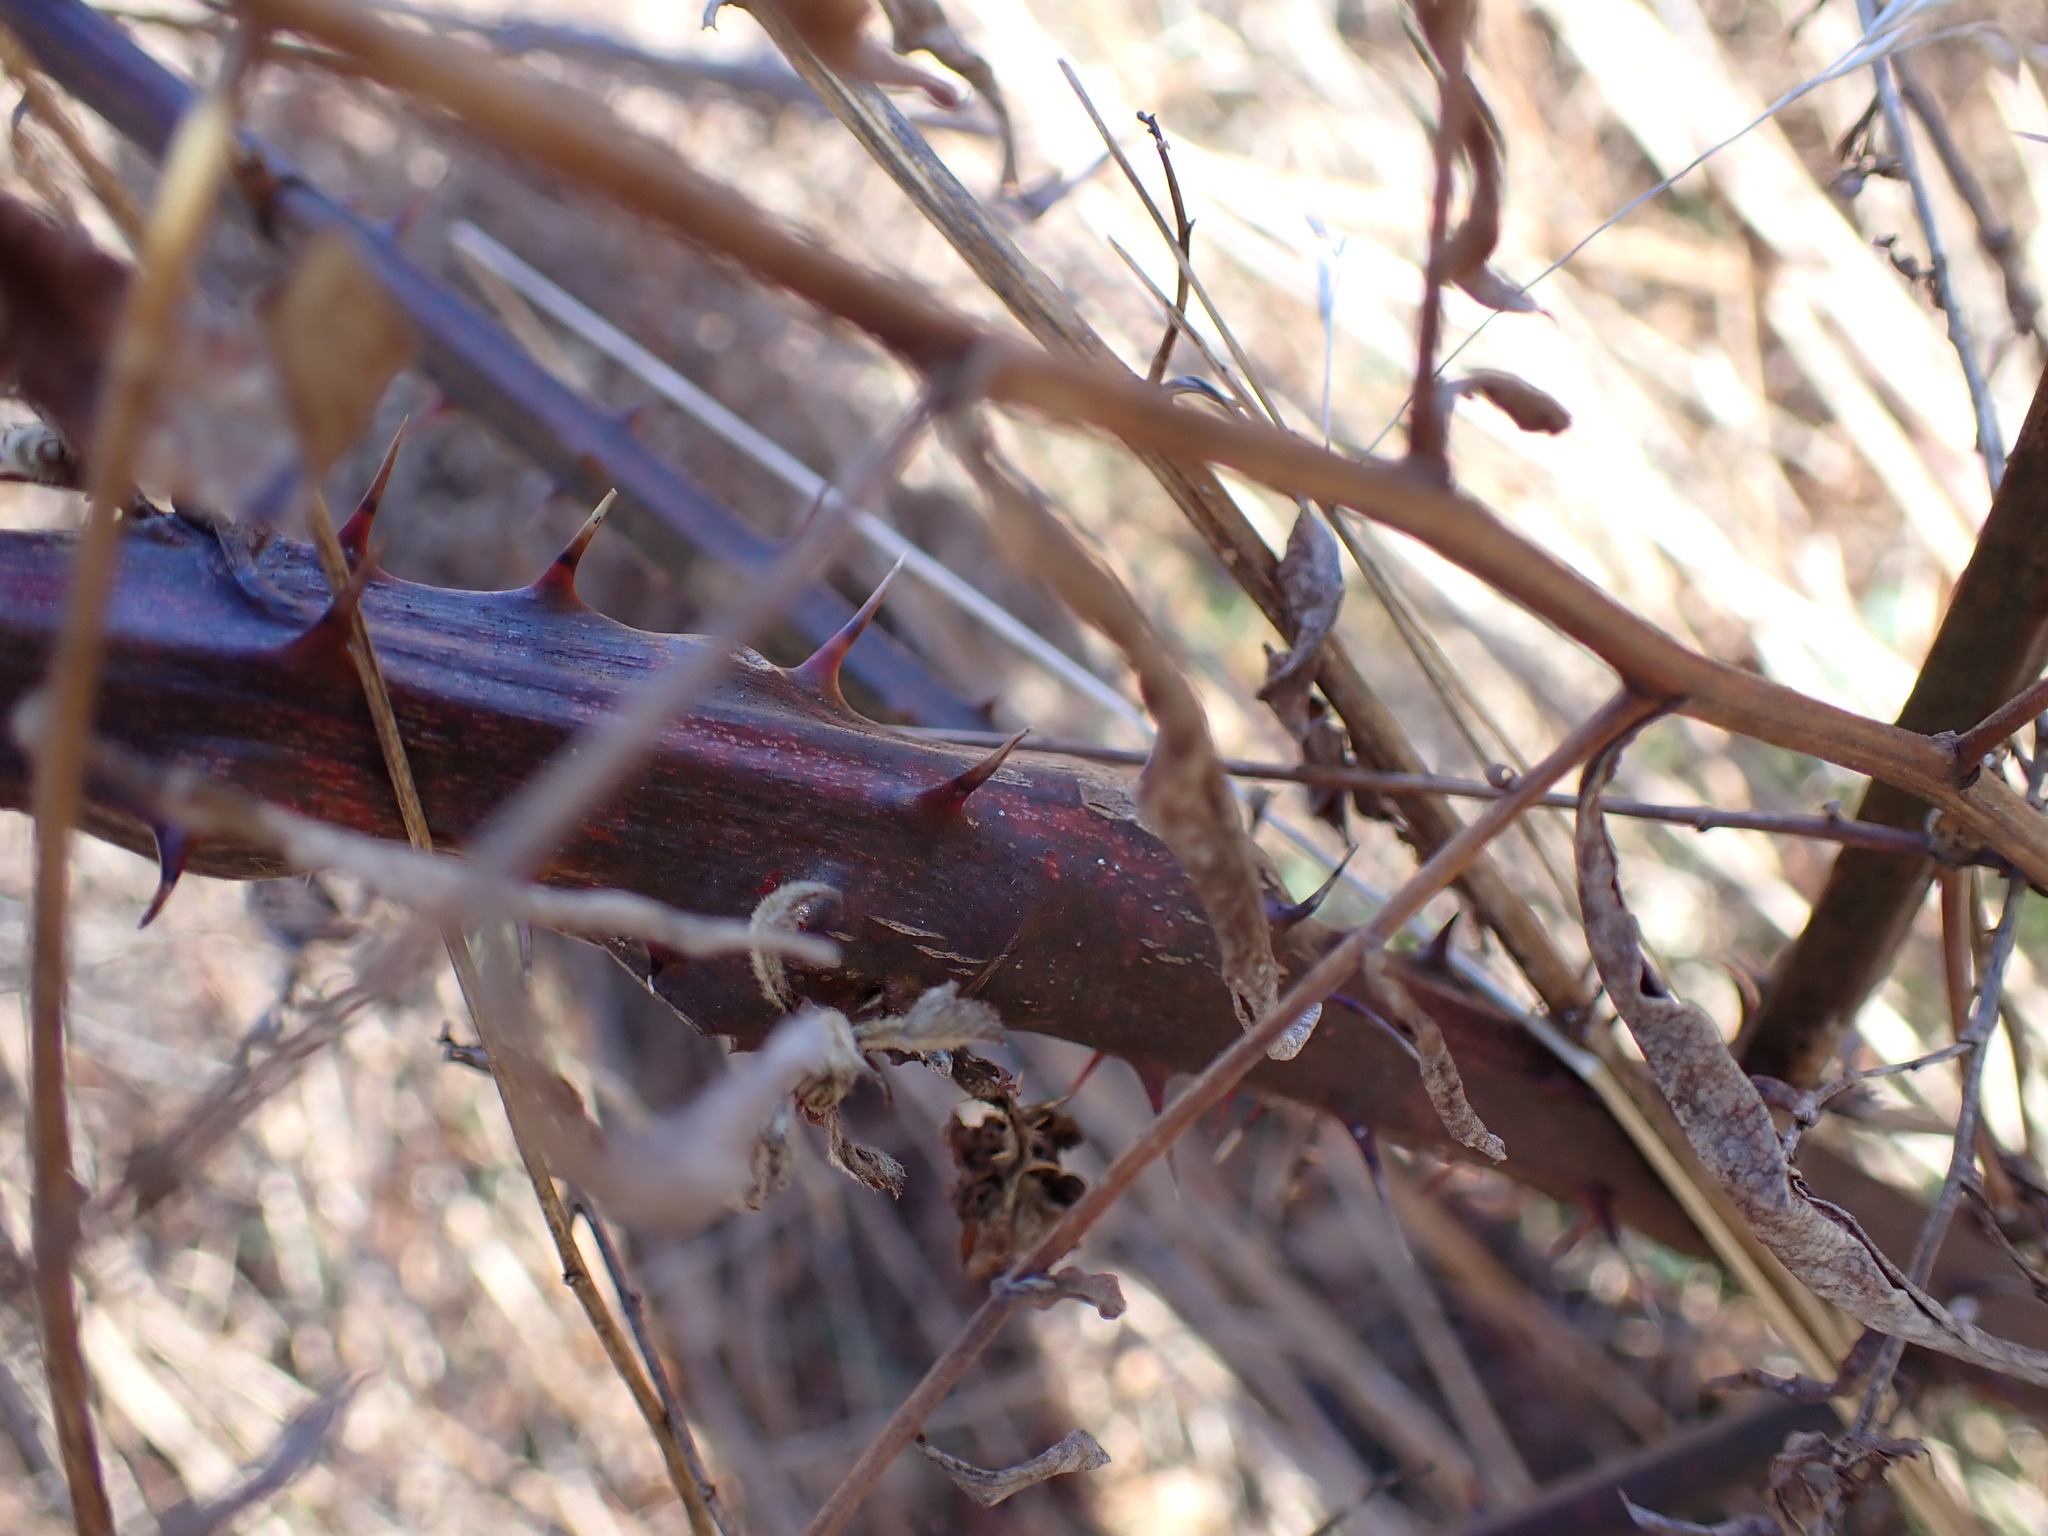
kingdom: Animalia
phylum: Arthropoda
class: Insecta
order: Diptera
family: Cecidomyiidae
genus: Neolasioptera
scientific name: Neolasioptera nodulosa
